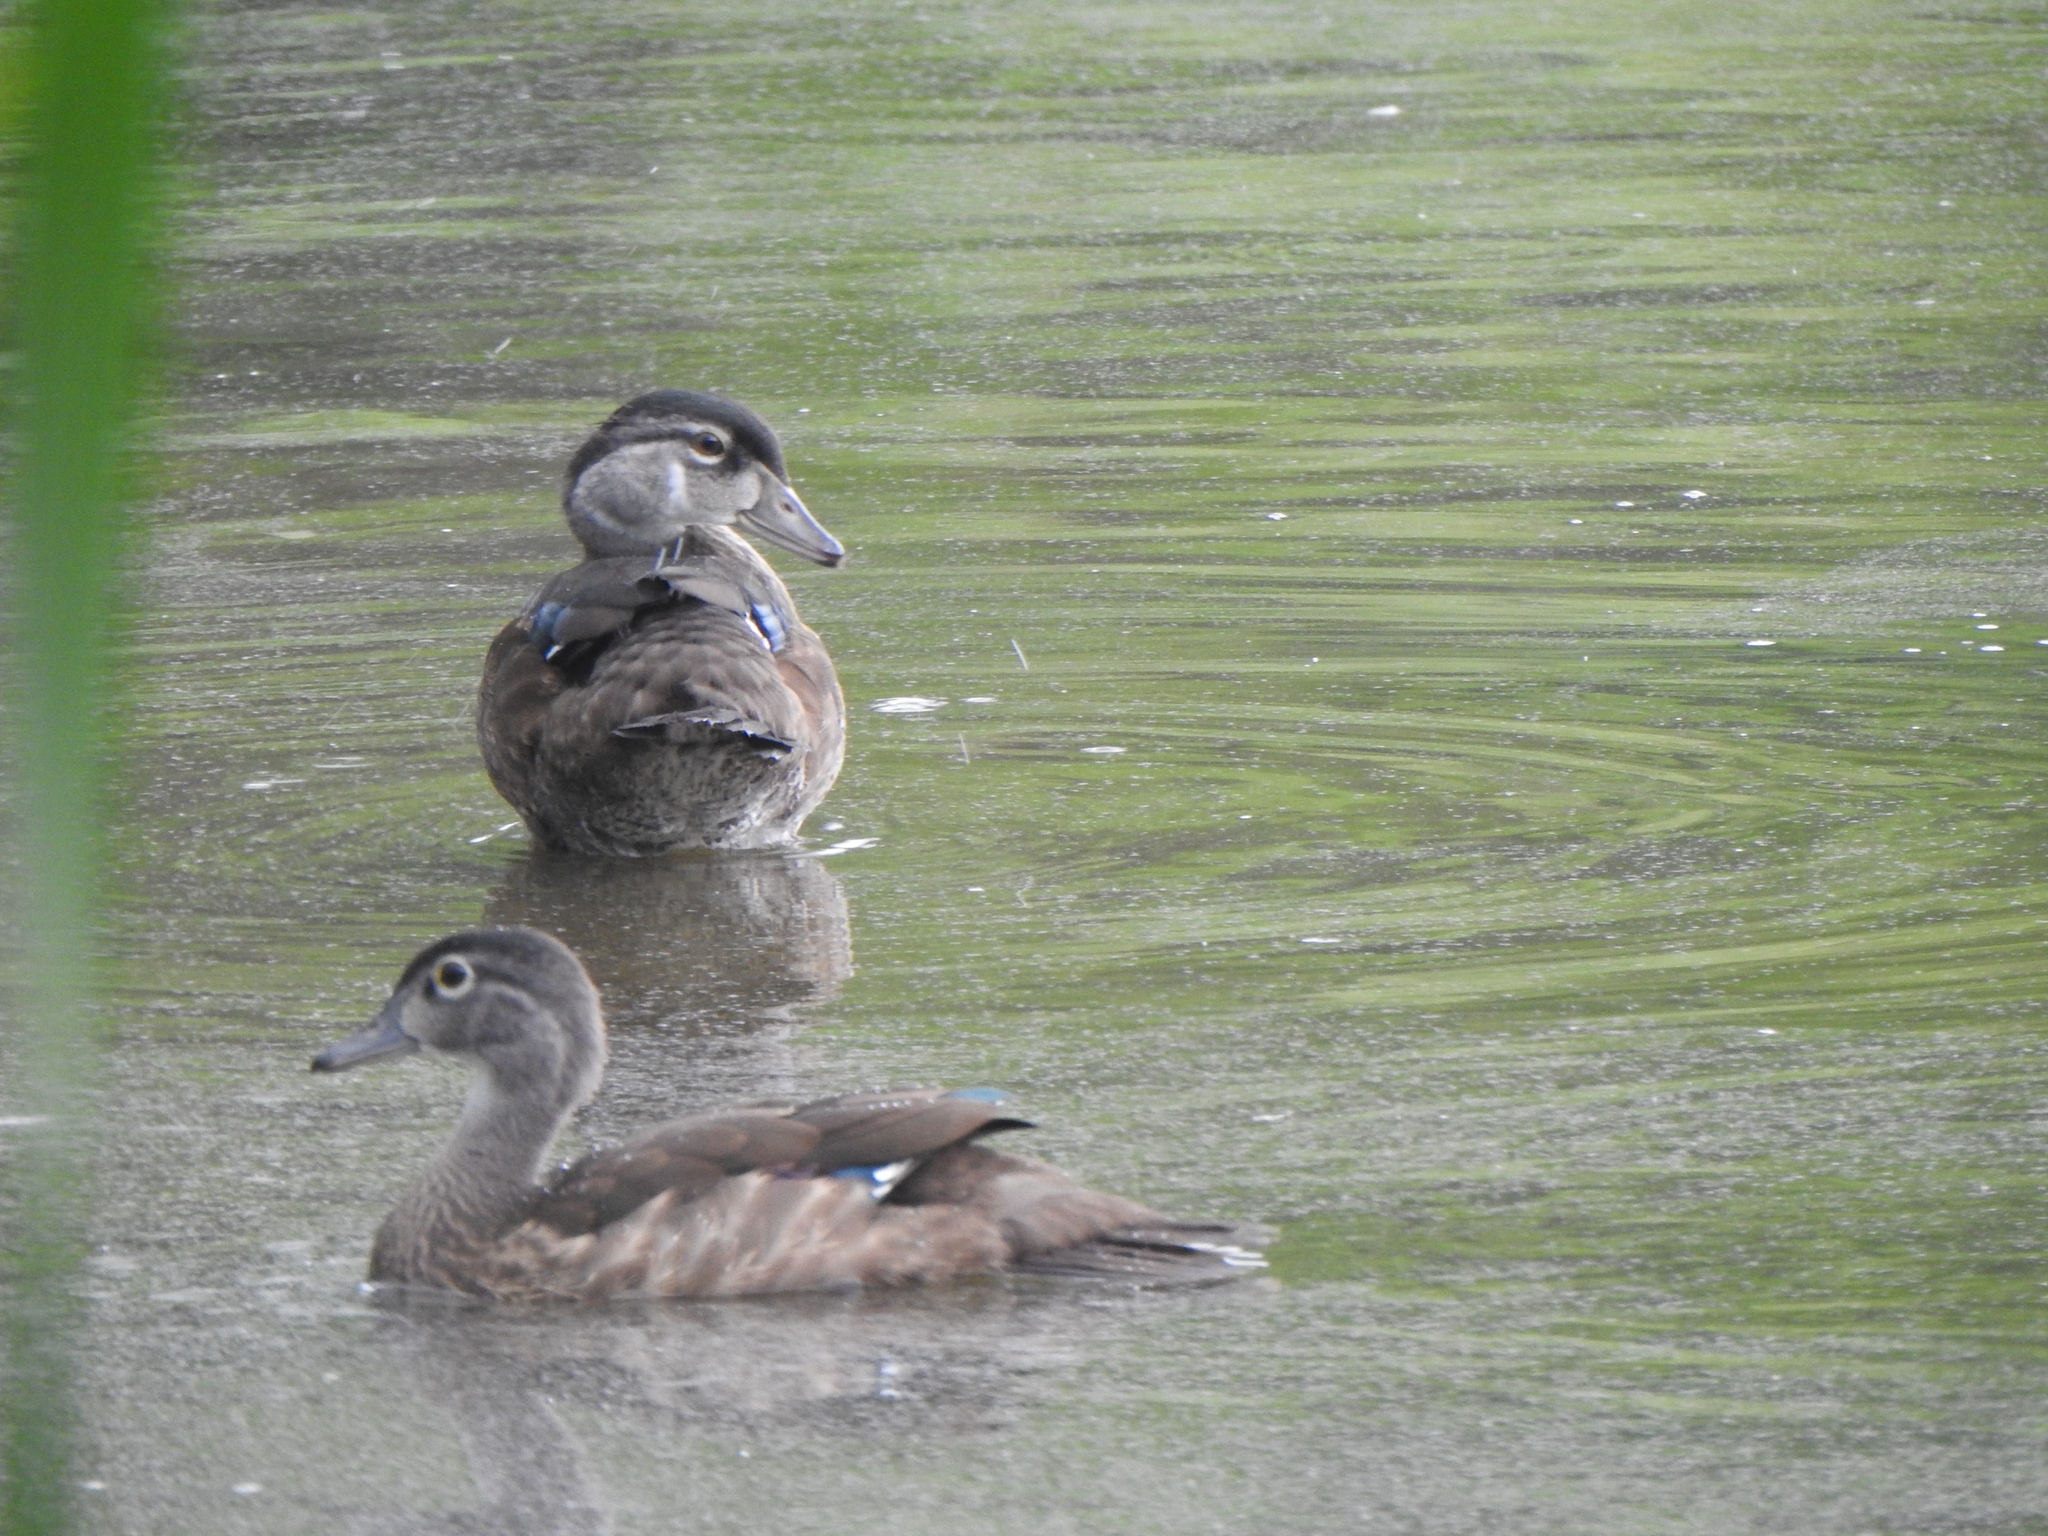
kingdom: Animalia
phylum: Chordata
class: Aves
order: Anseriformes
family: Anatidae
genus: Aix
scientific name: Aix sponsa
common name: Wood duck
